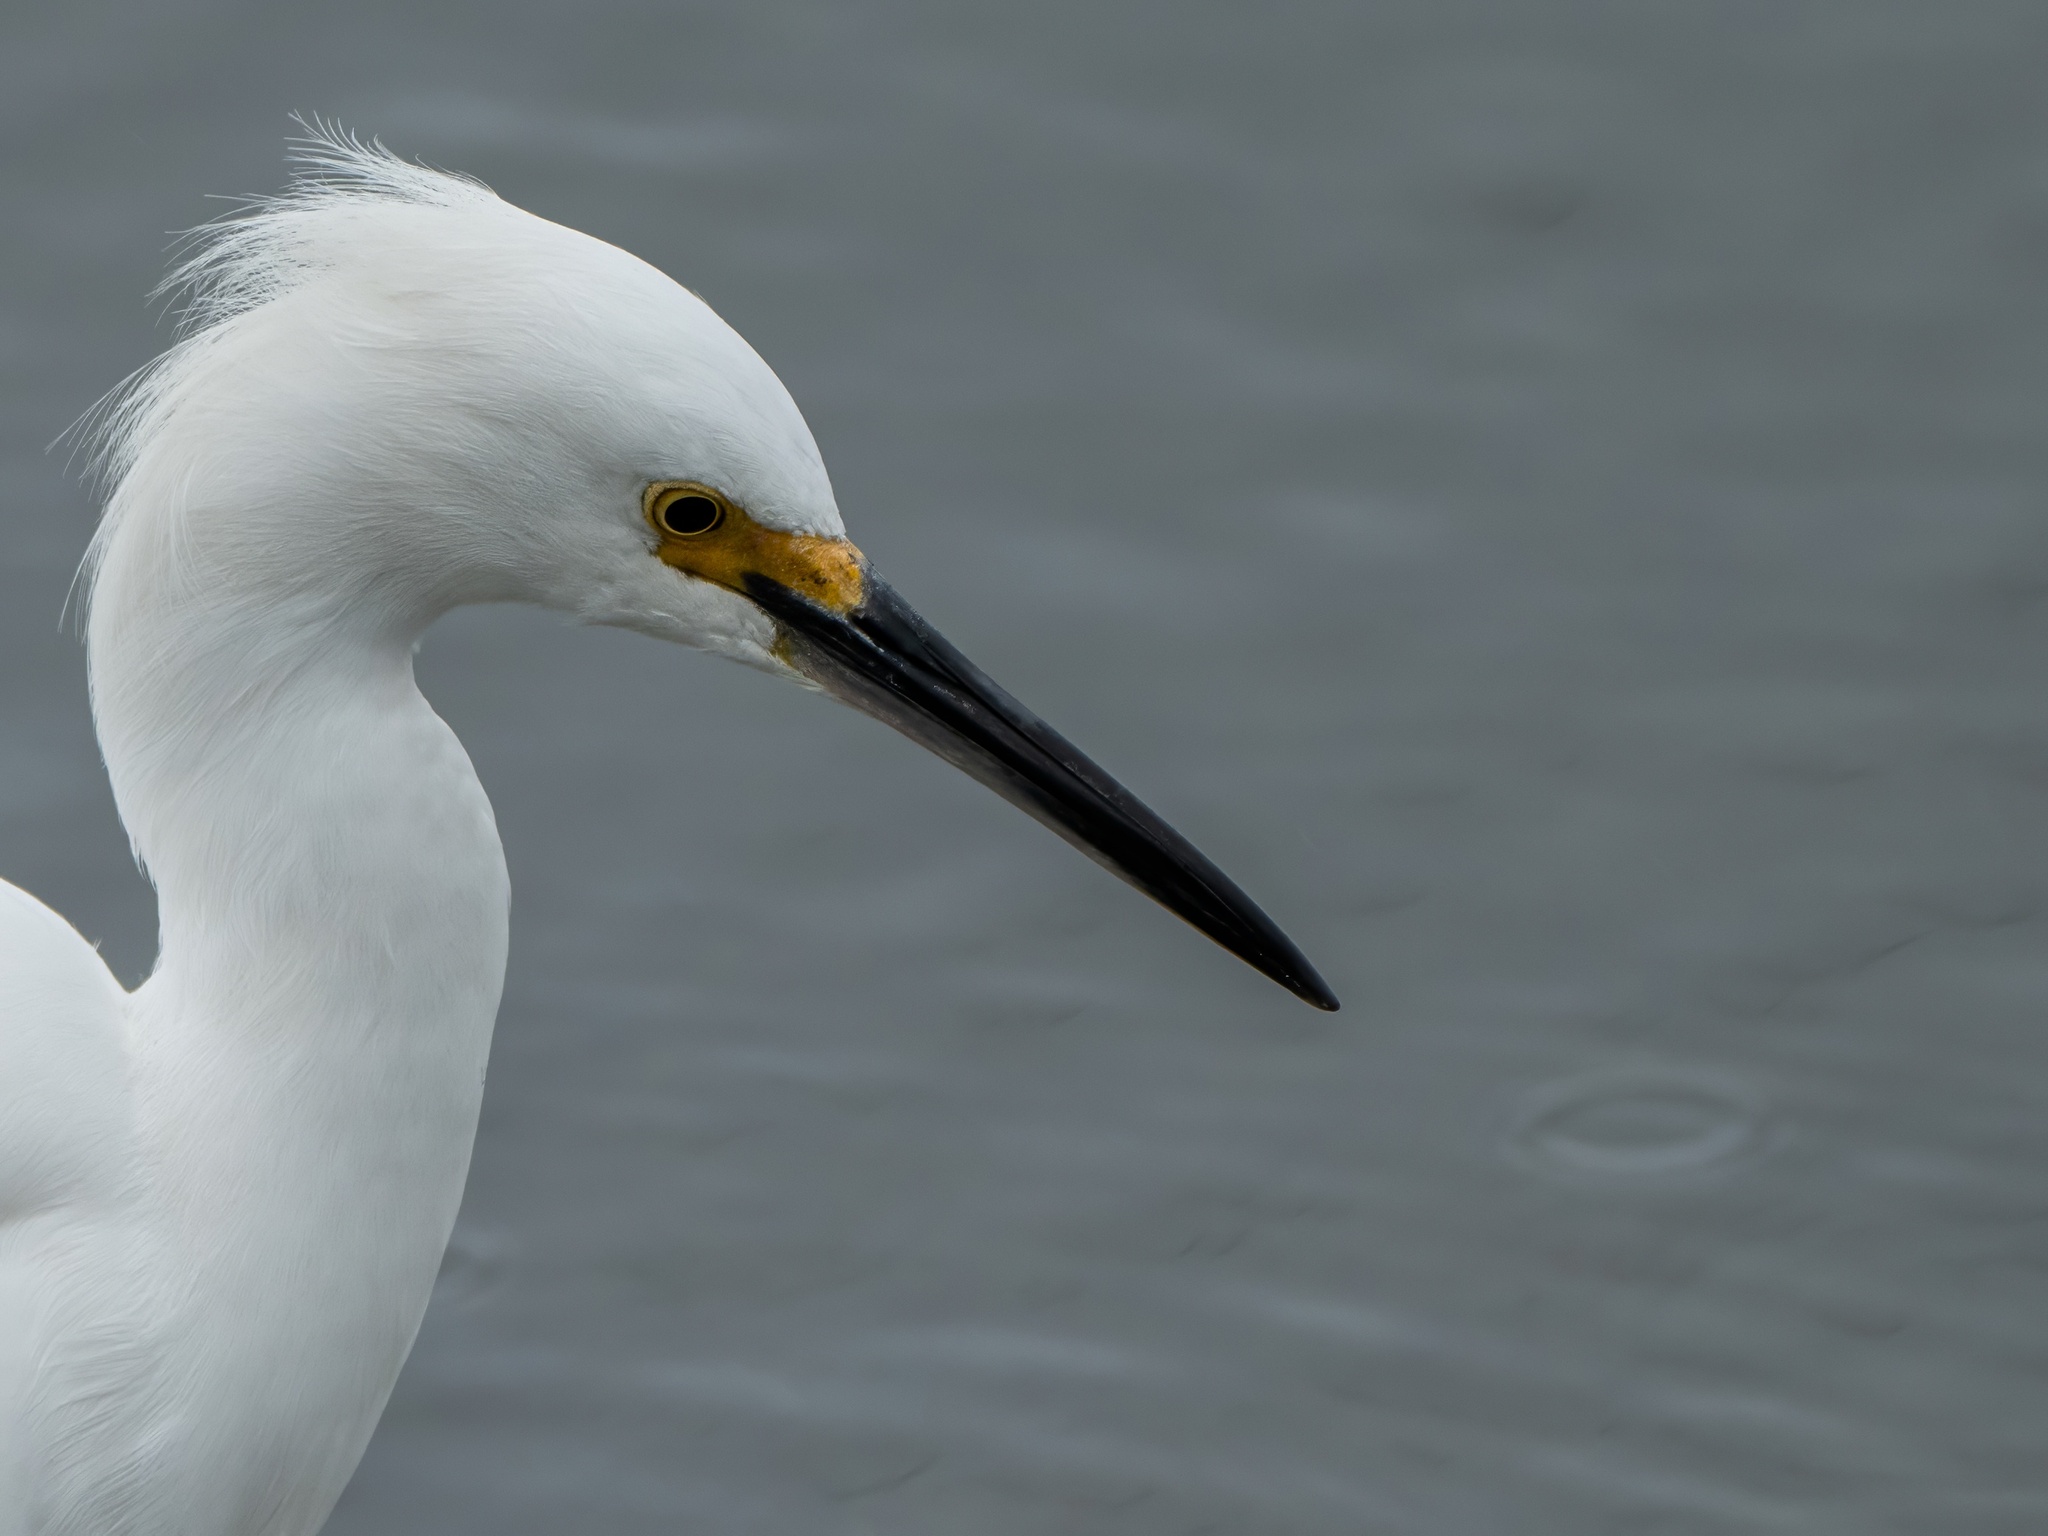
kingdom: Animalia
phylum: Chordata
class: Aves
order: Pelecaniformes
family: Ardeidae
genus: Egretta
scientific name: Egretta thula
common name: Snowy egret
